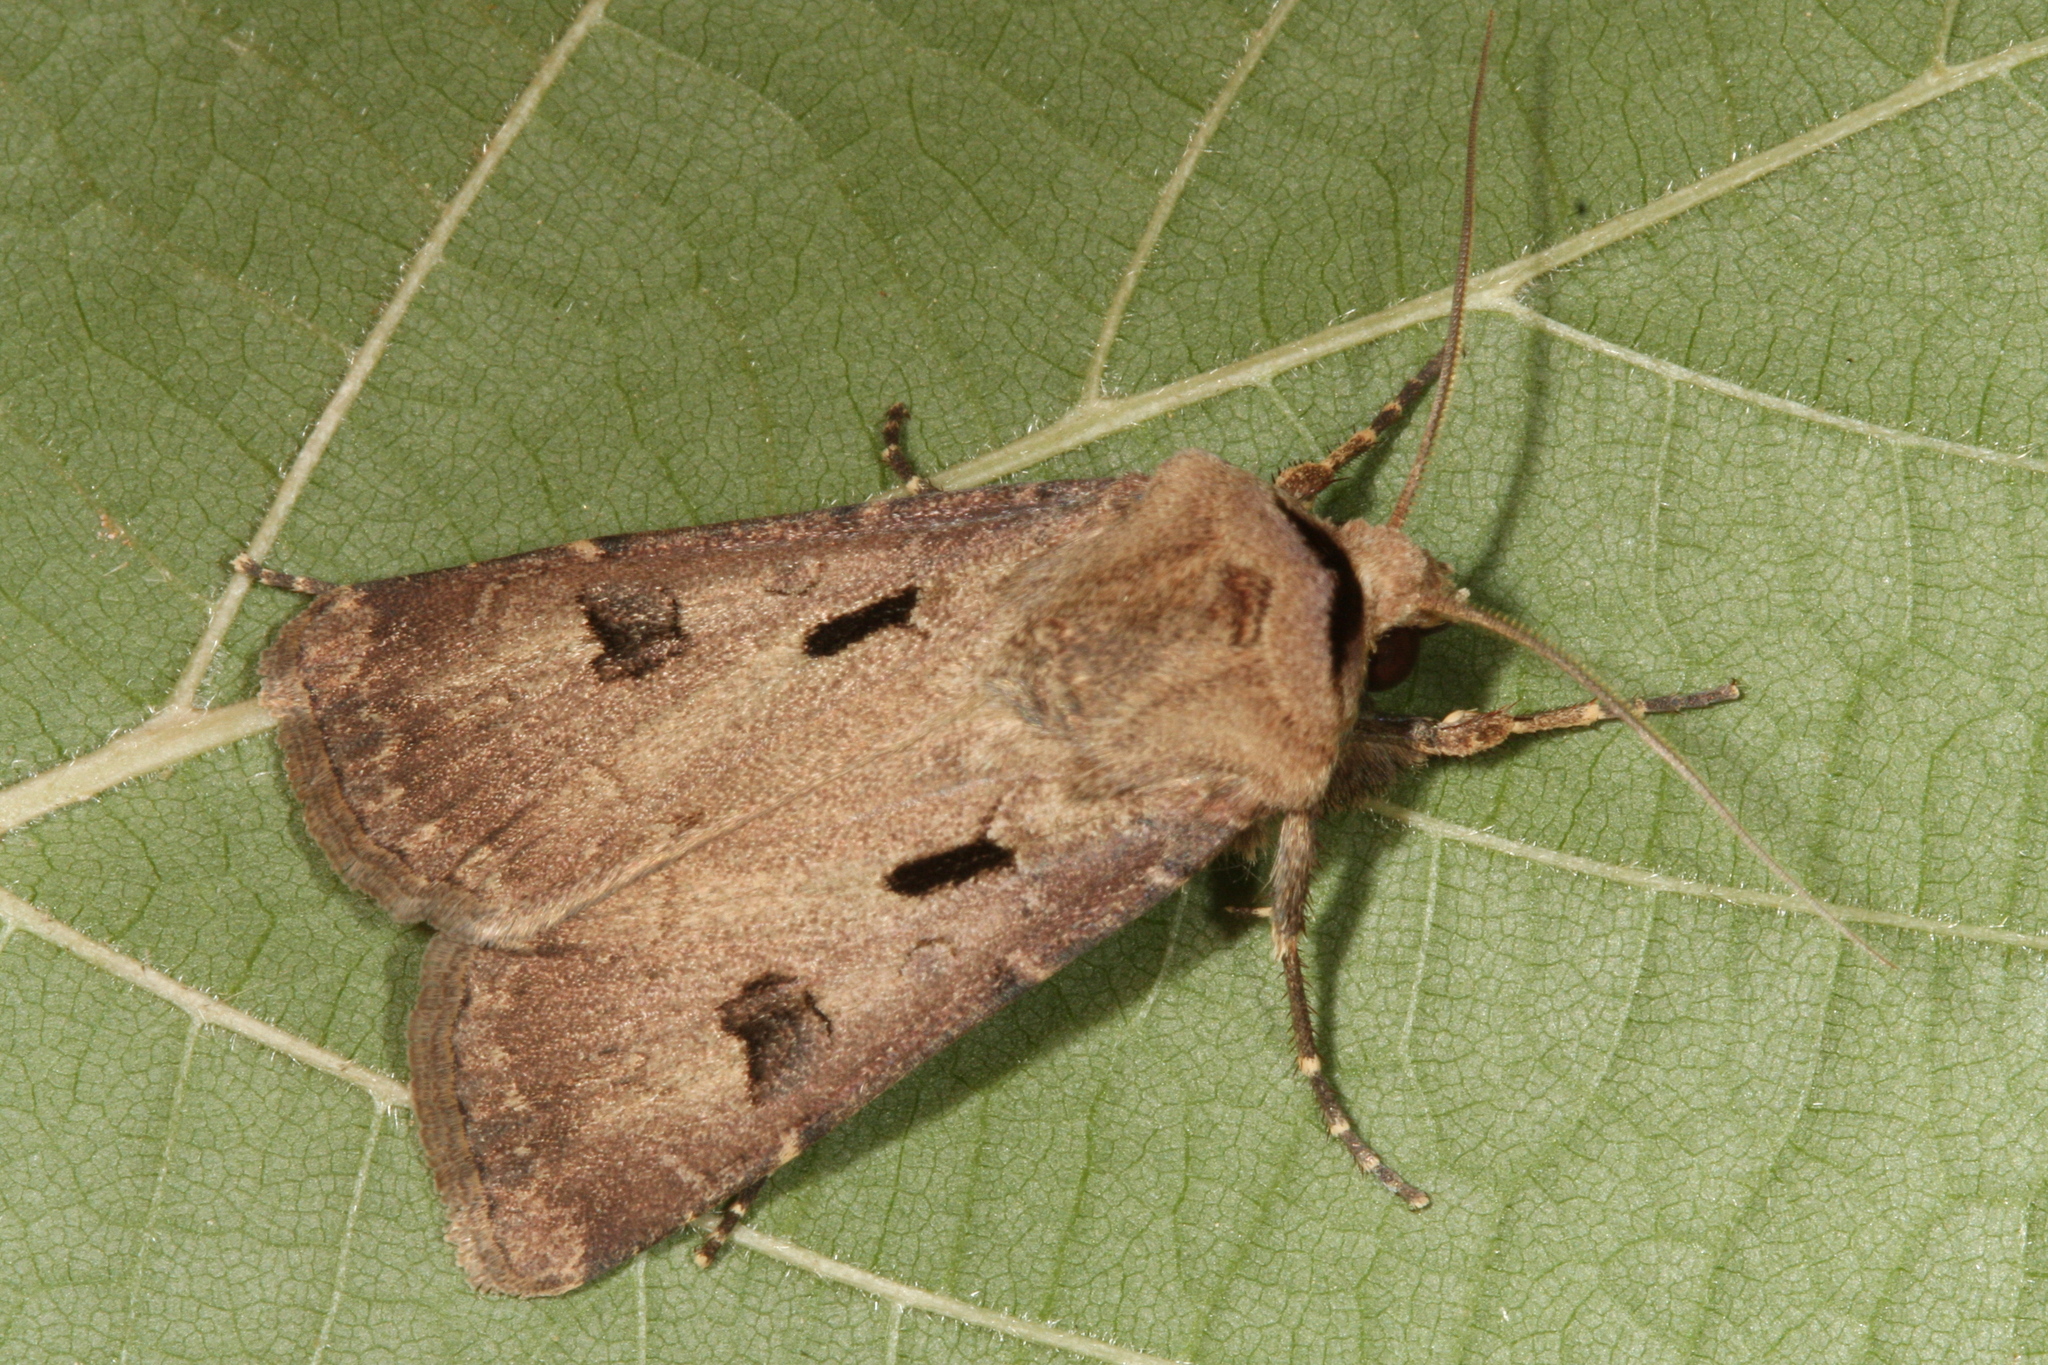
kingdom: Animalia
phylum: Arthropoda
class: Insecta
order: Lepidoptera
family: Noctuidae
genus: Agrotis
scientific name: Agrotis exclamationis
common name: Heart and dart
